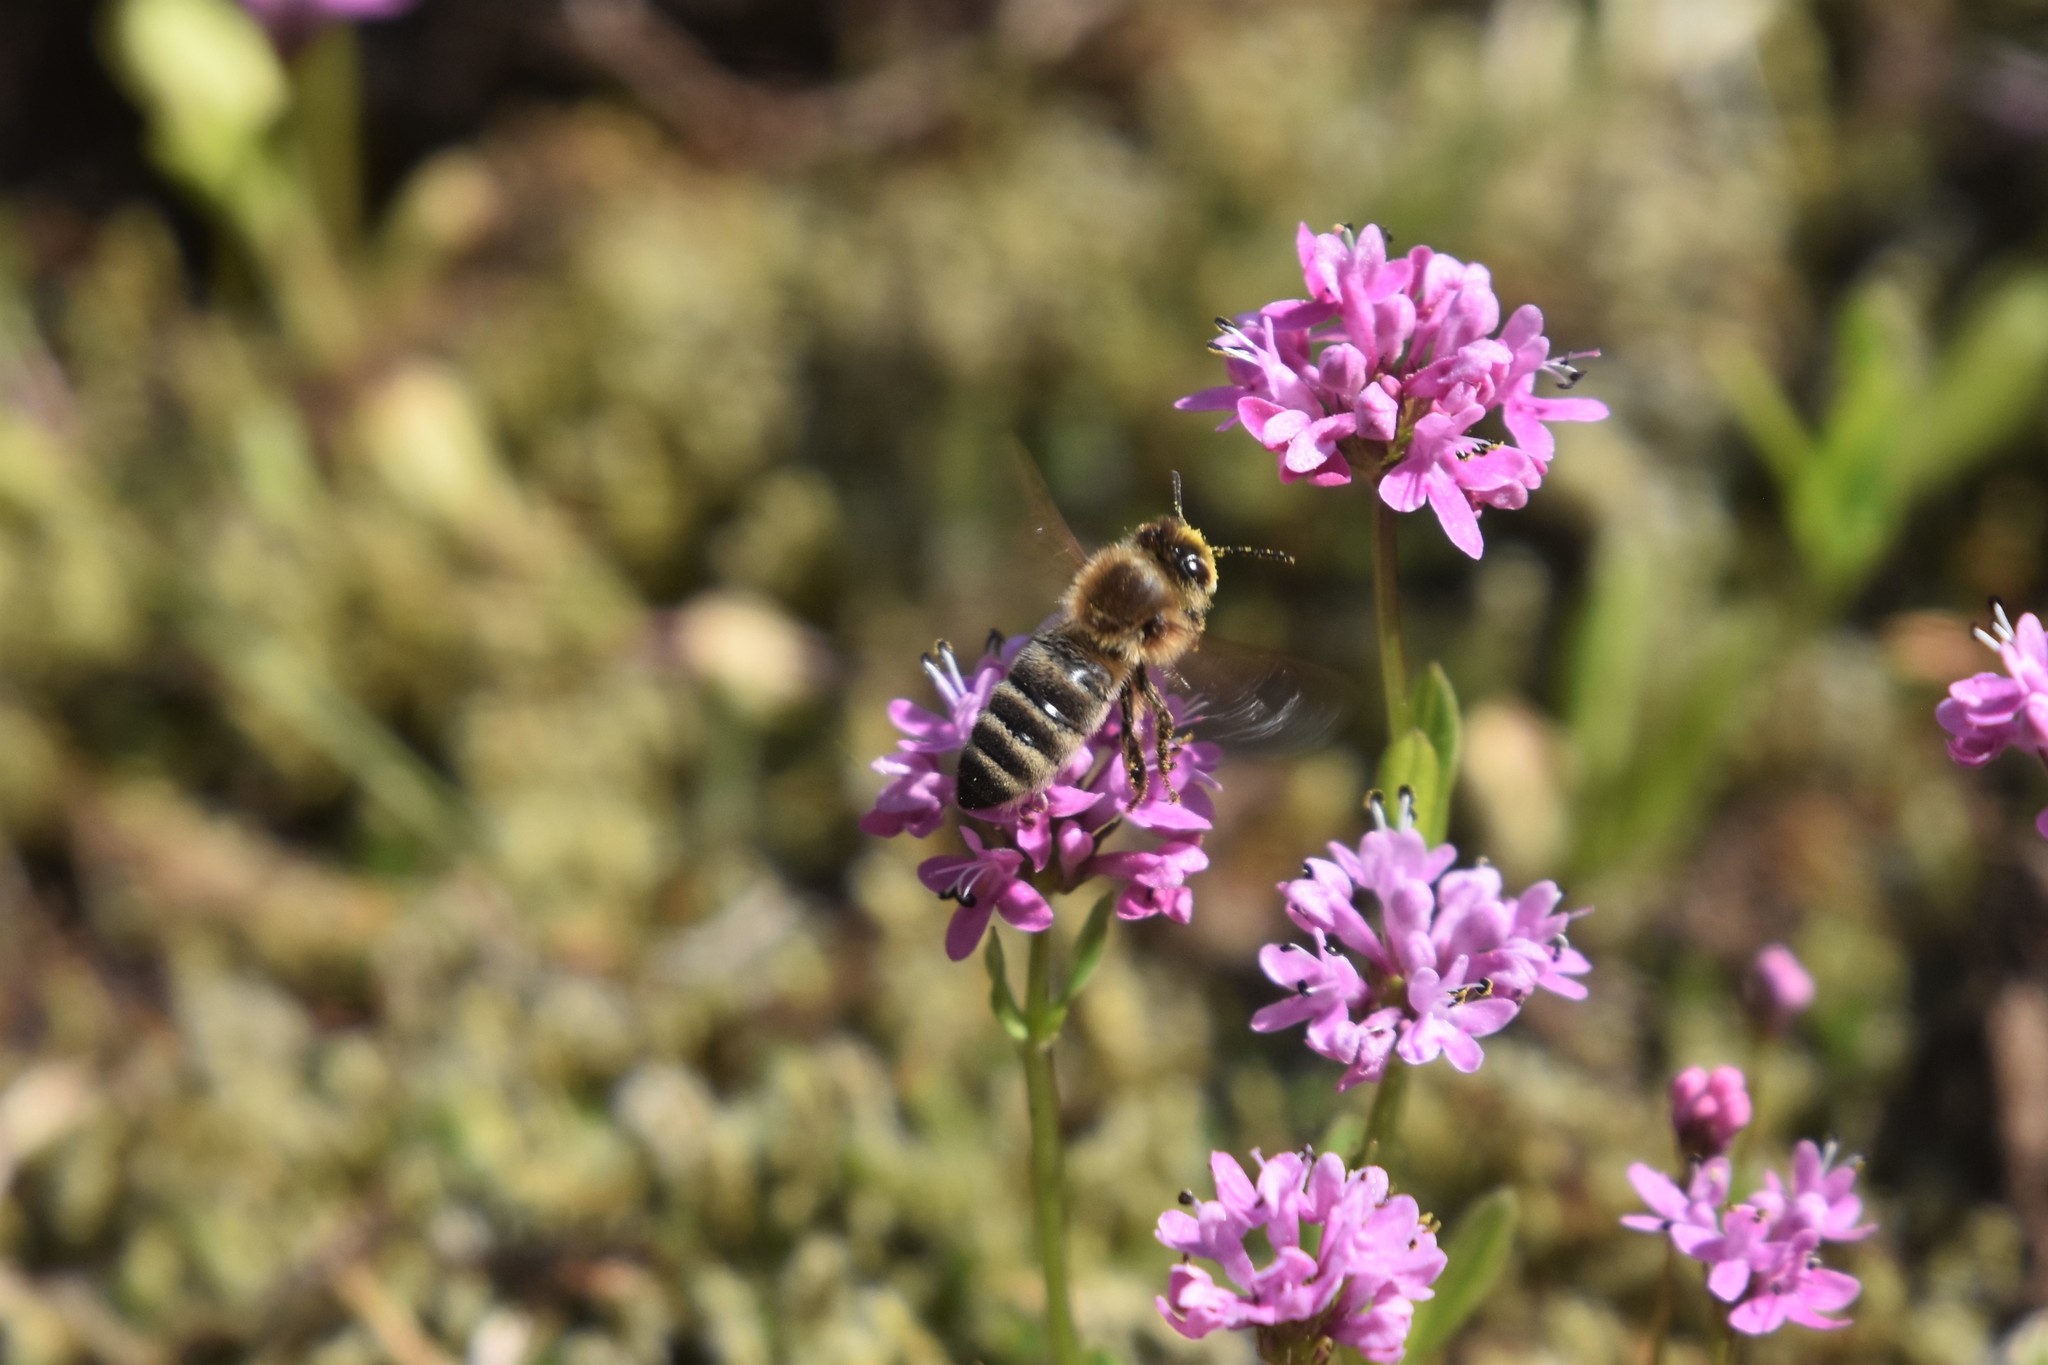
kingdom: Animalia
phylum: Arthropoda
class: Insecta
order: Hymenoptera
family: Apidae
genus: Apis
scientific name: Apis mellifera
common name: Honey bee
